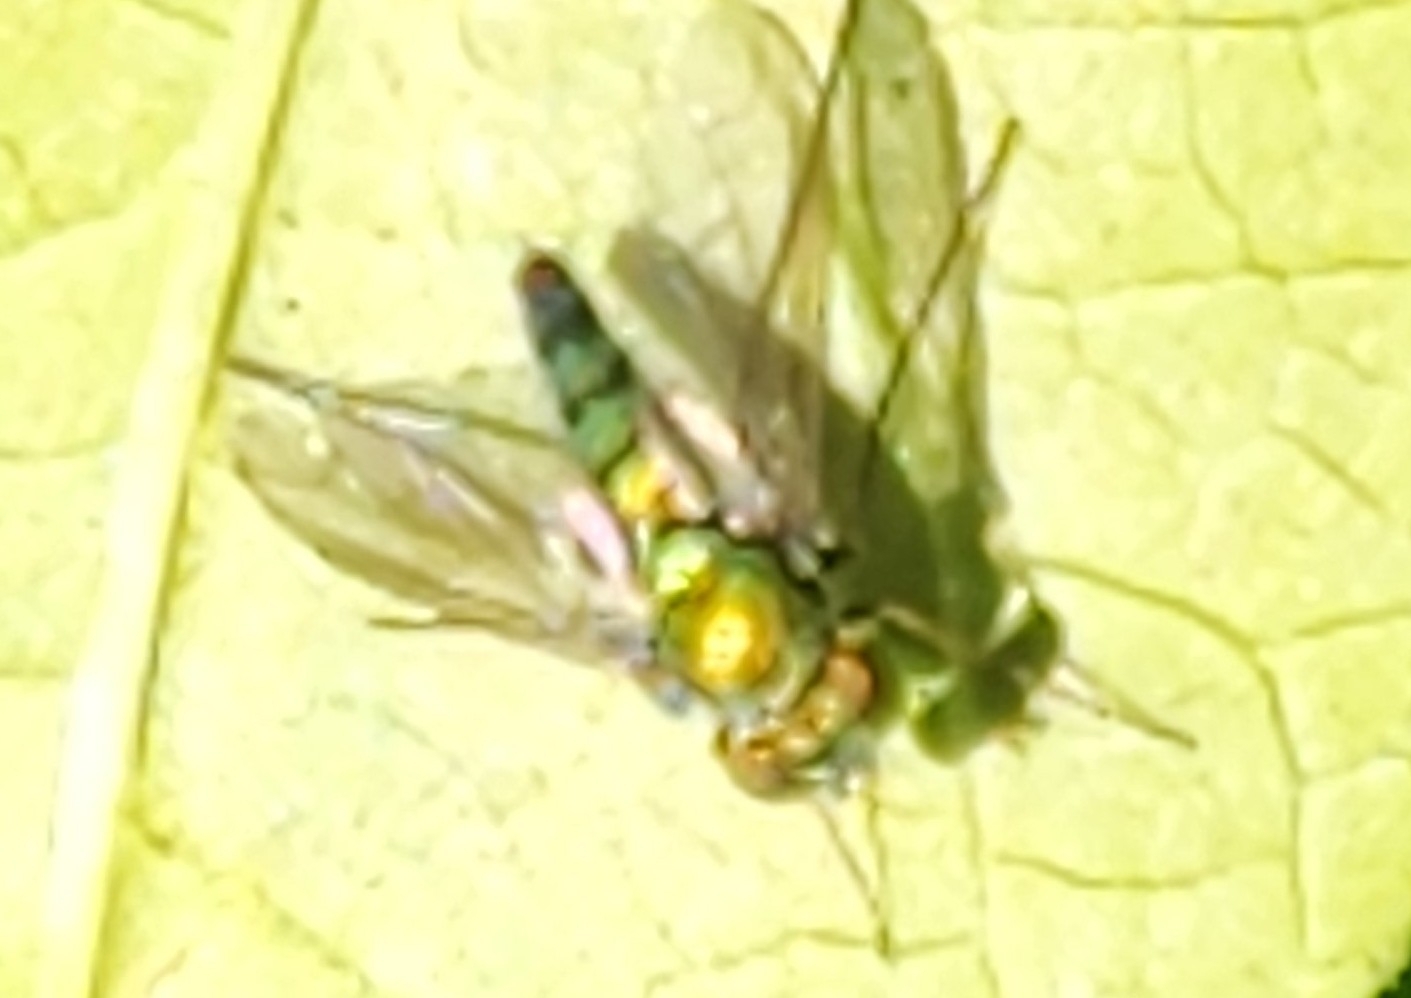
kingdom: Animalia
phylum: Arthropoda
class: Insecta
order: Diptera
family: Dolichopodidae
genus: Condylostylus
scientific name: Condylostylus longicornis
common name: Long-legged fly
